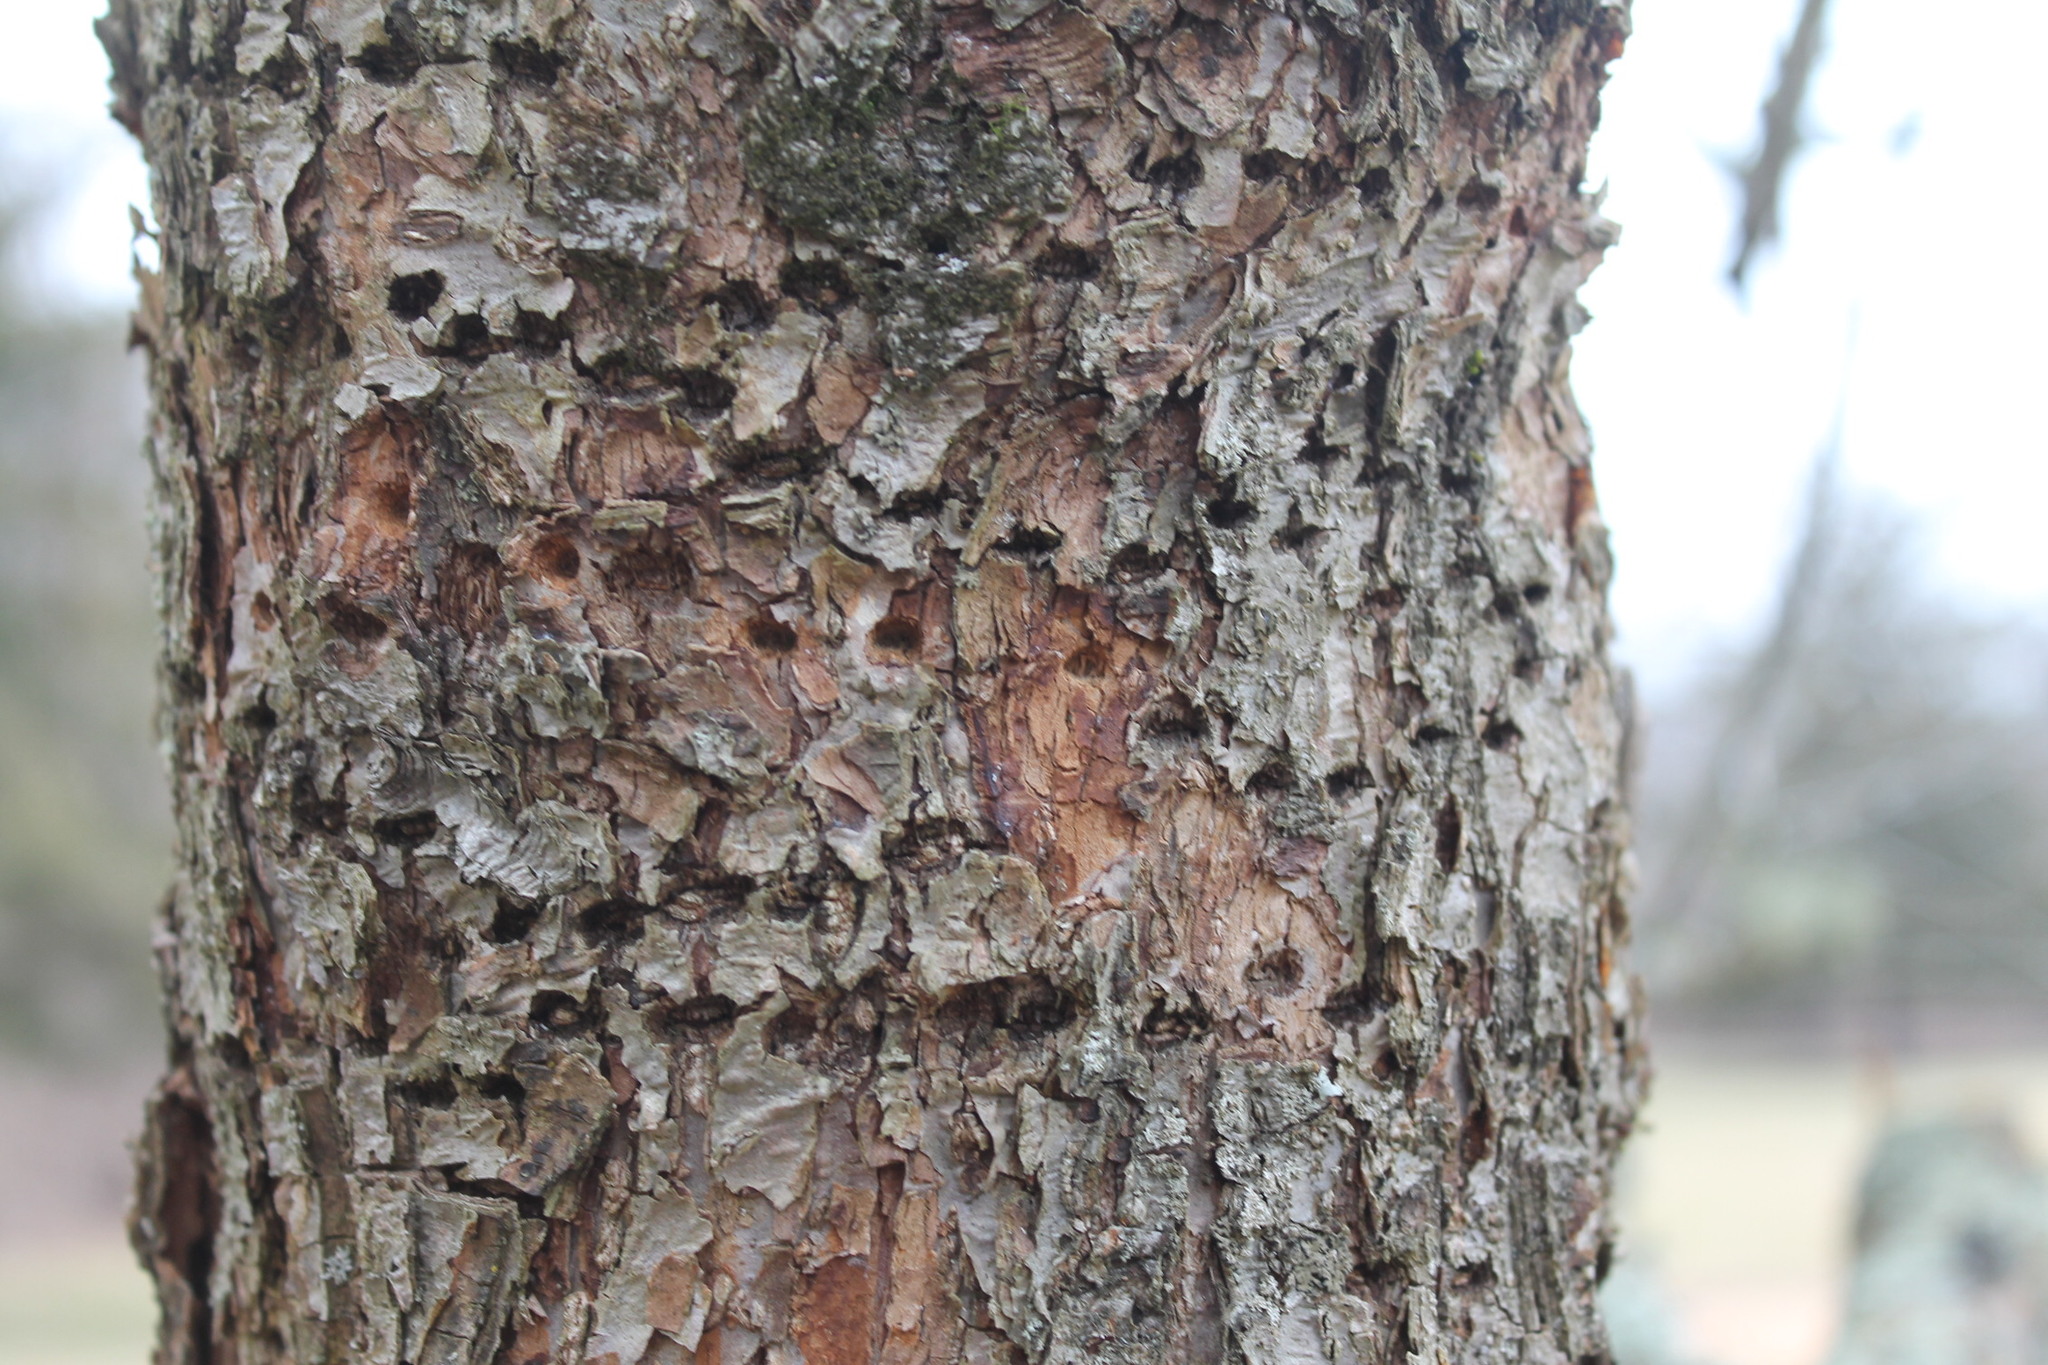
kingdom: Animalia
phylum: Chordata
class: Aves
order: Piciformes
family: Picidae
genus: Sphyrapicus
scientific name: Sphyrapicus varius
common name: Yellow-bellied sapsucker
